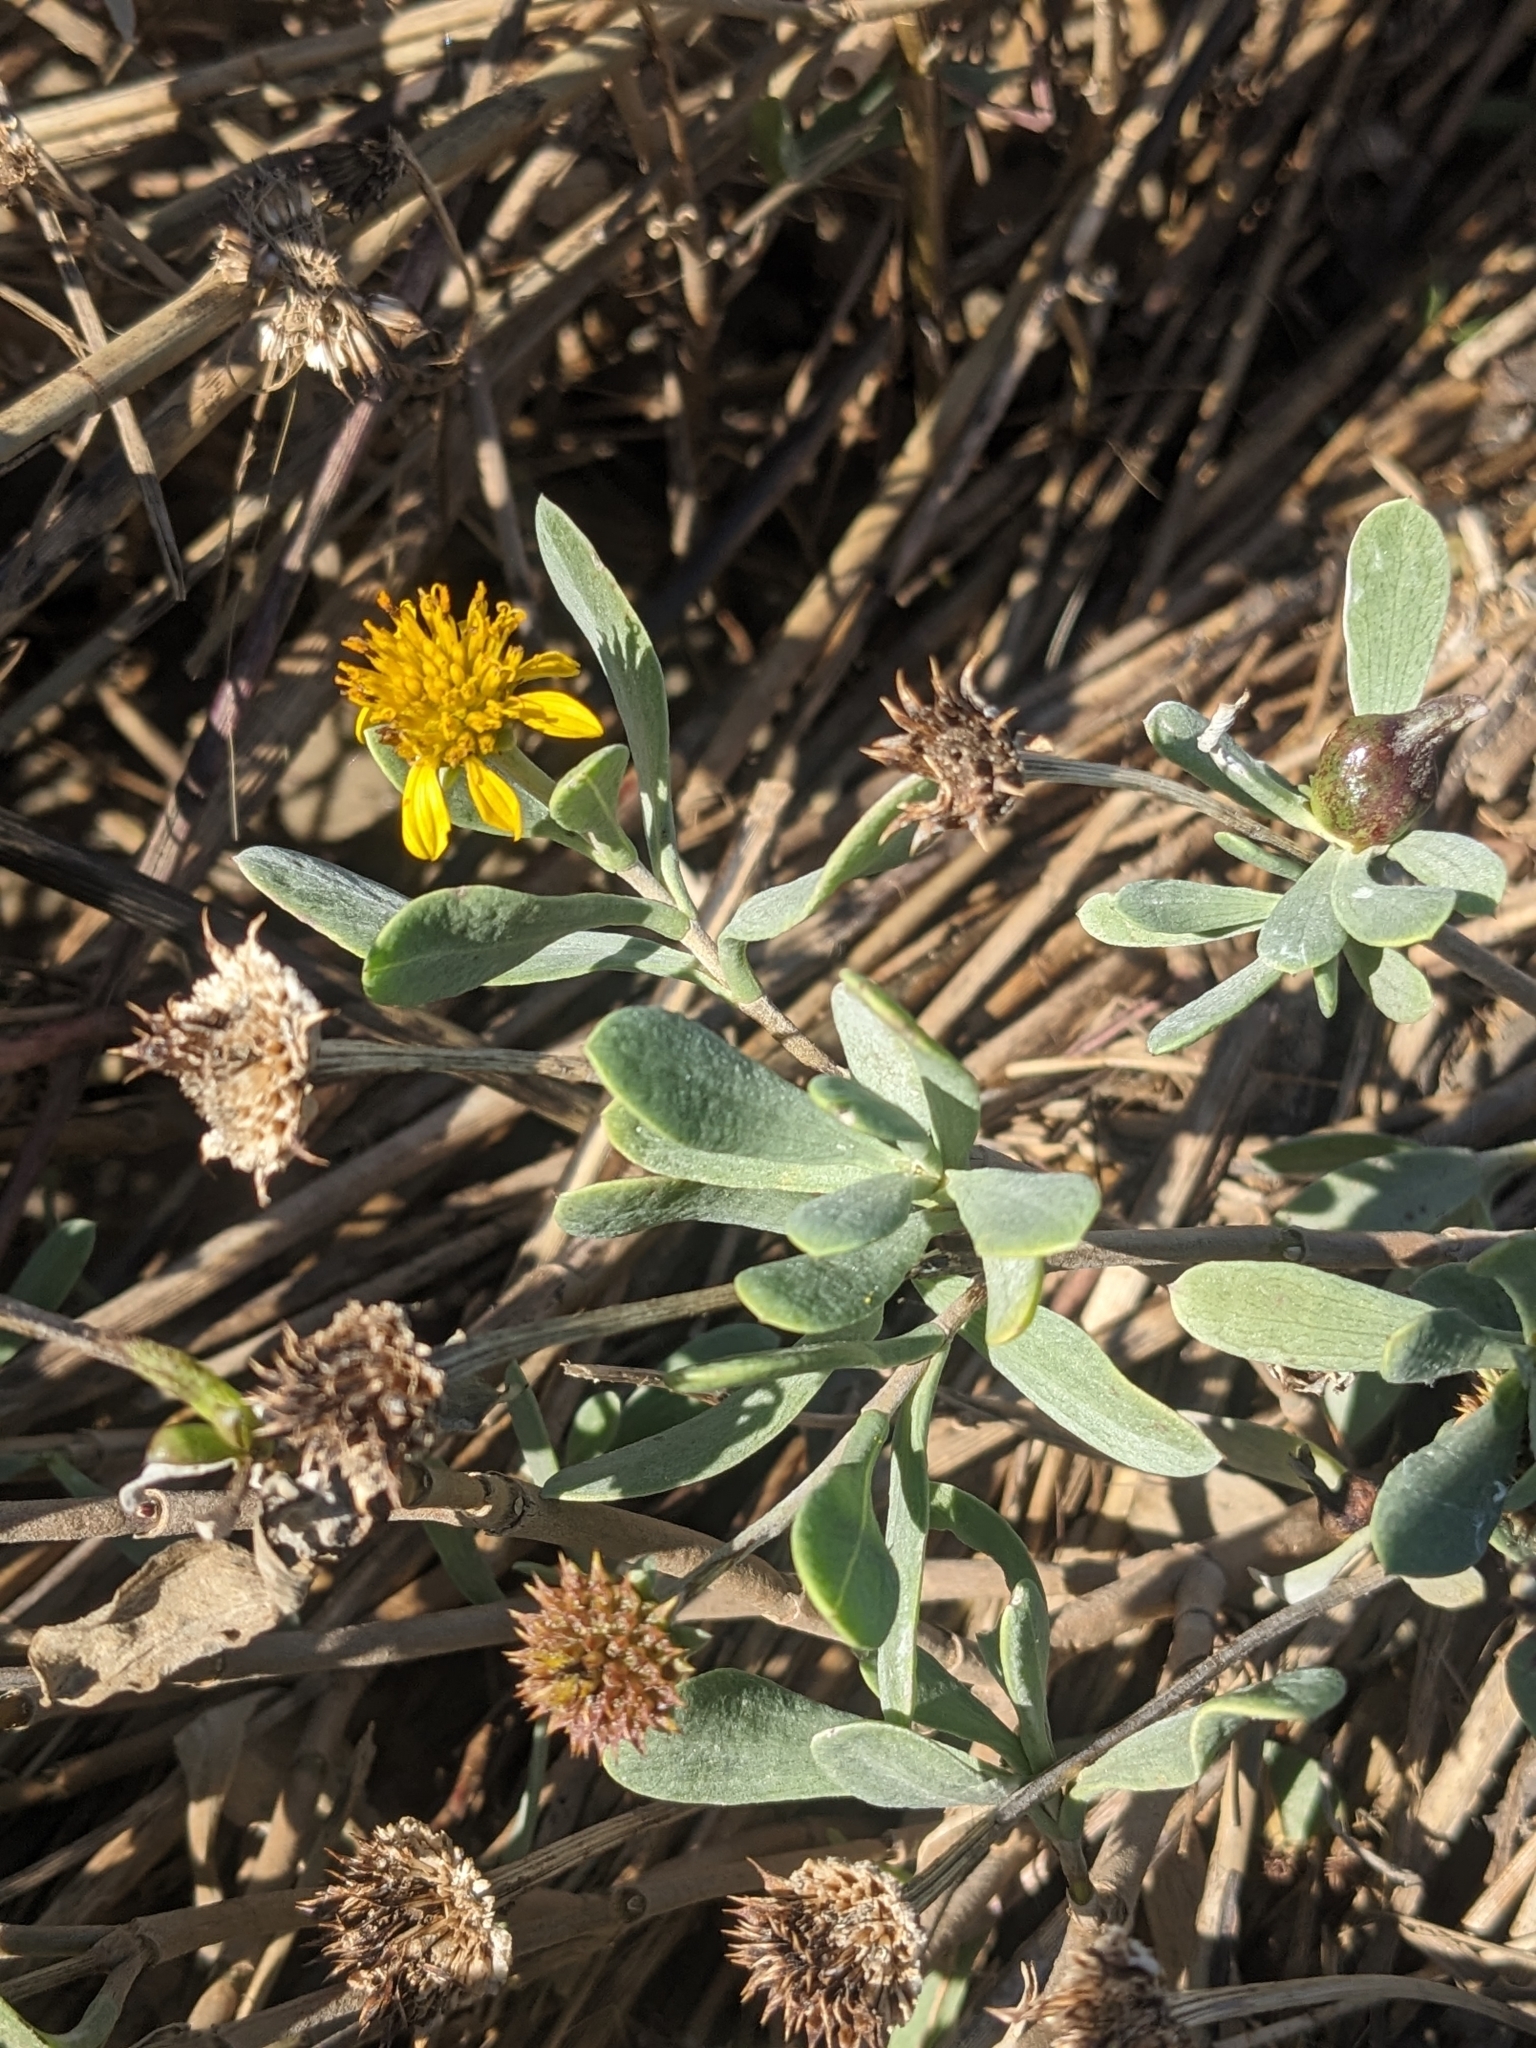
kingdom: Plantae
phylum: Tracheophyta
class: Magnoliopsida
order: Asterales
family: Asteraceae
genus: Borrichia
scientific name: Borrichia frutescens
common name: Sea oxeye
